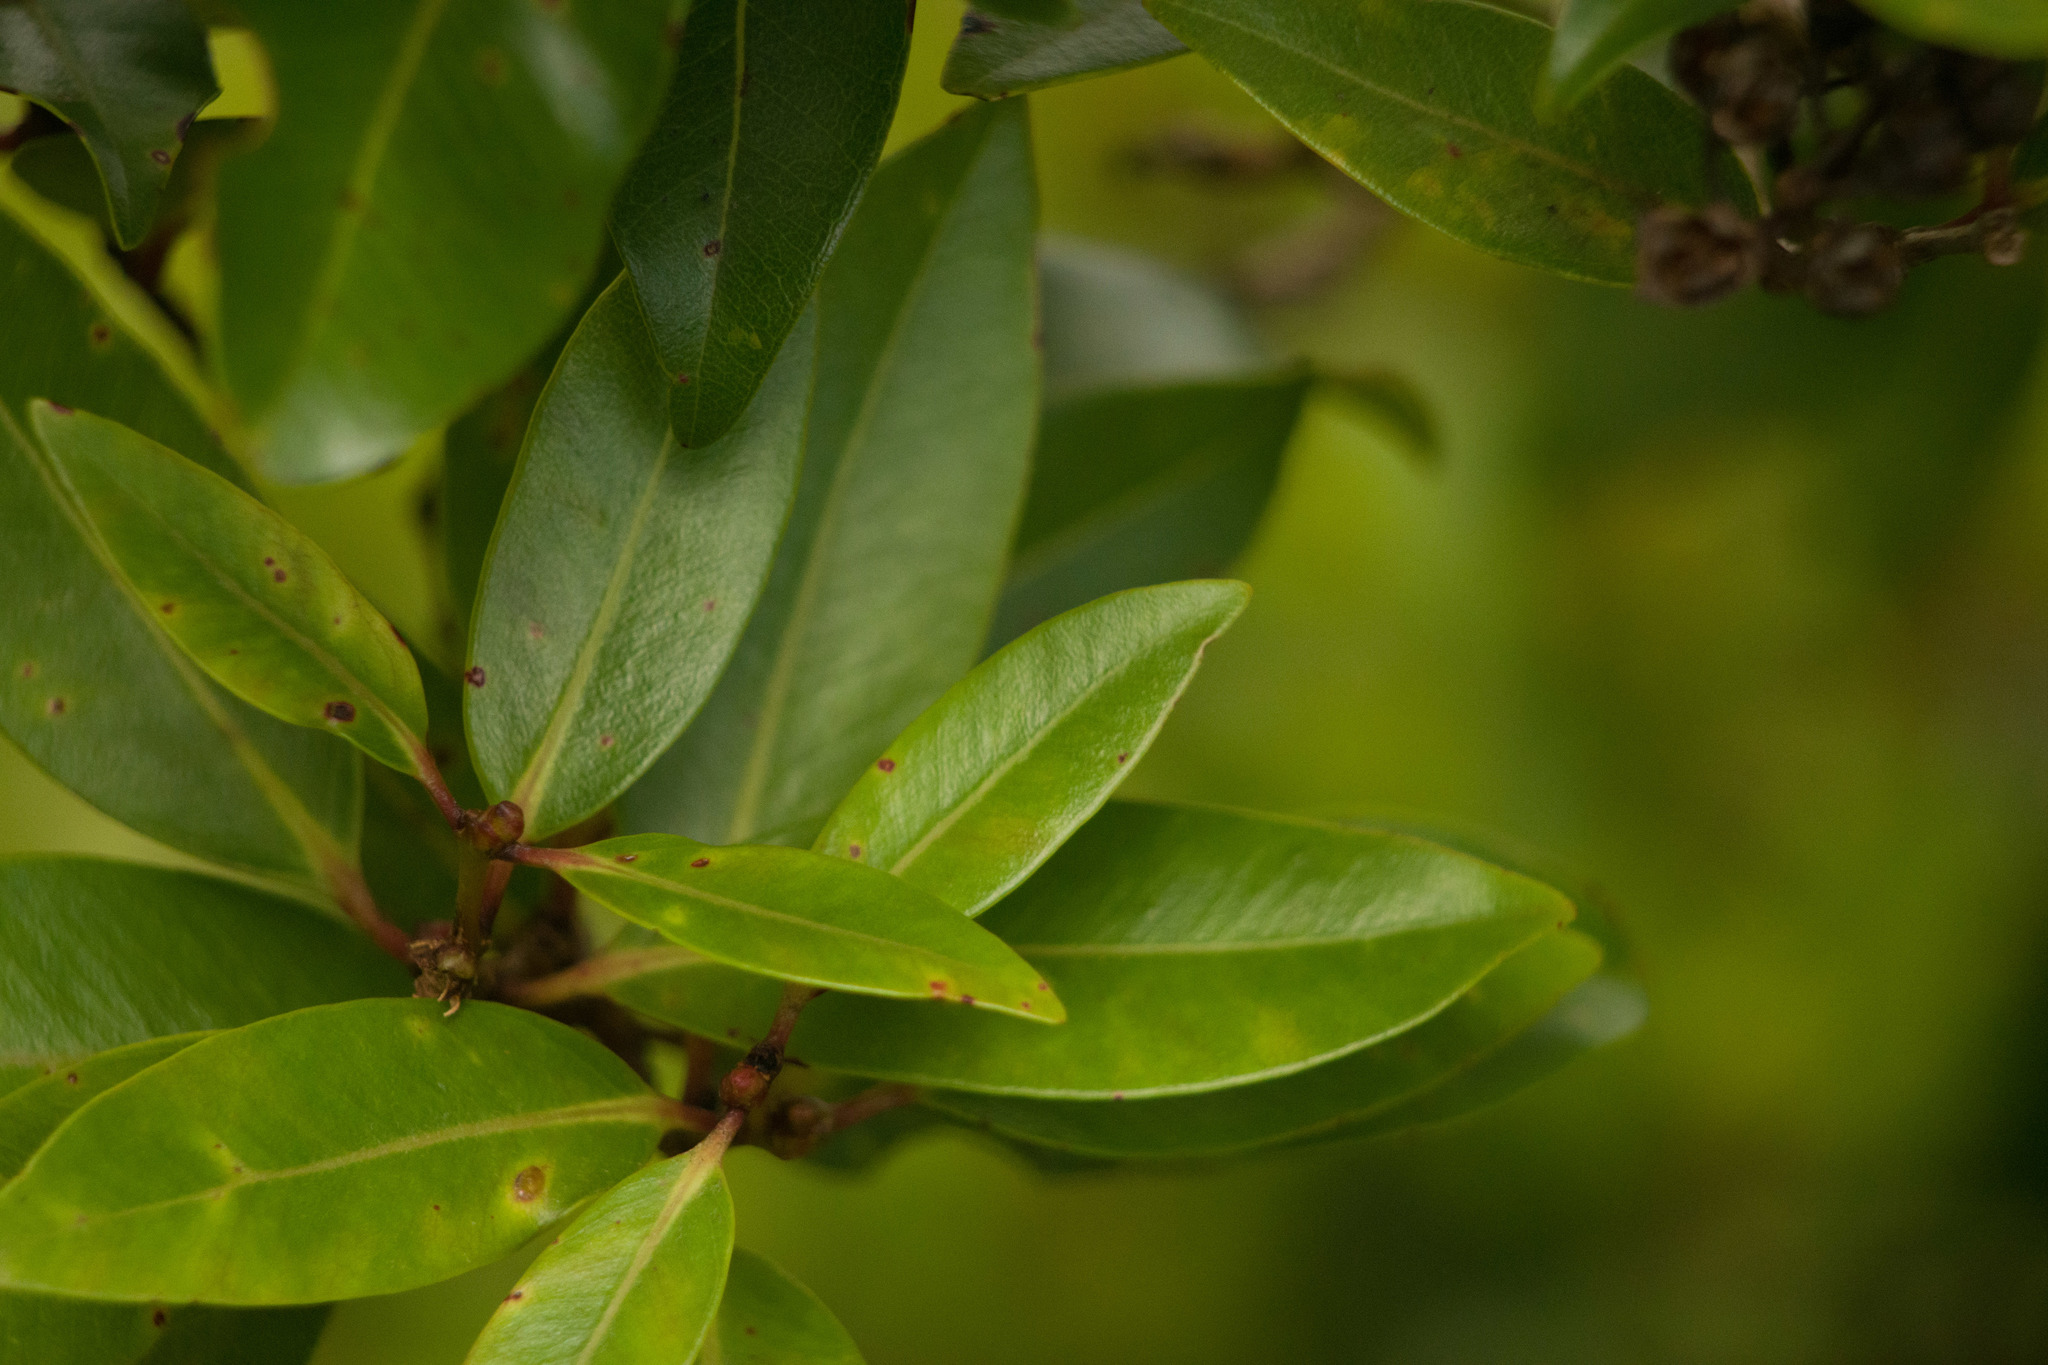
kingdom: Plantae
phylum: Tracheophyta
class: Magnoliopsida
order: Myrtales
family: Myrtaceae
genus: Metrosideros
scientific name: Metrosideros polymorpha
